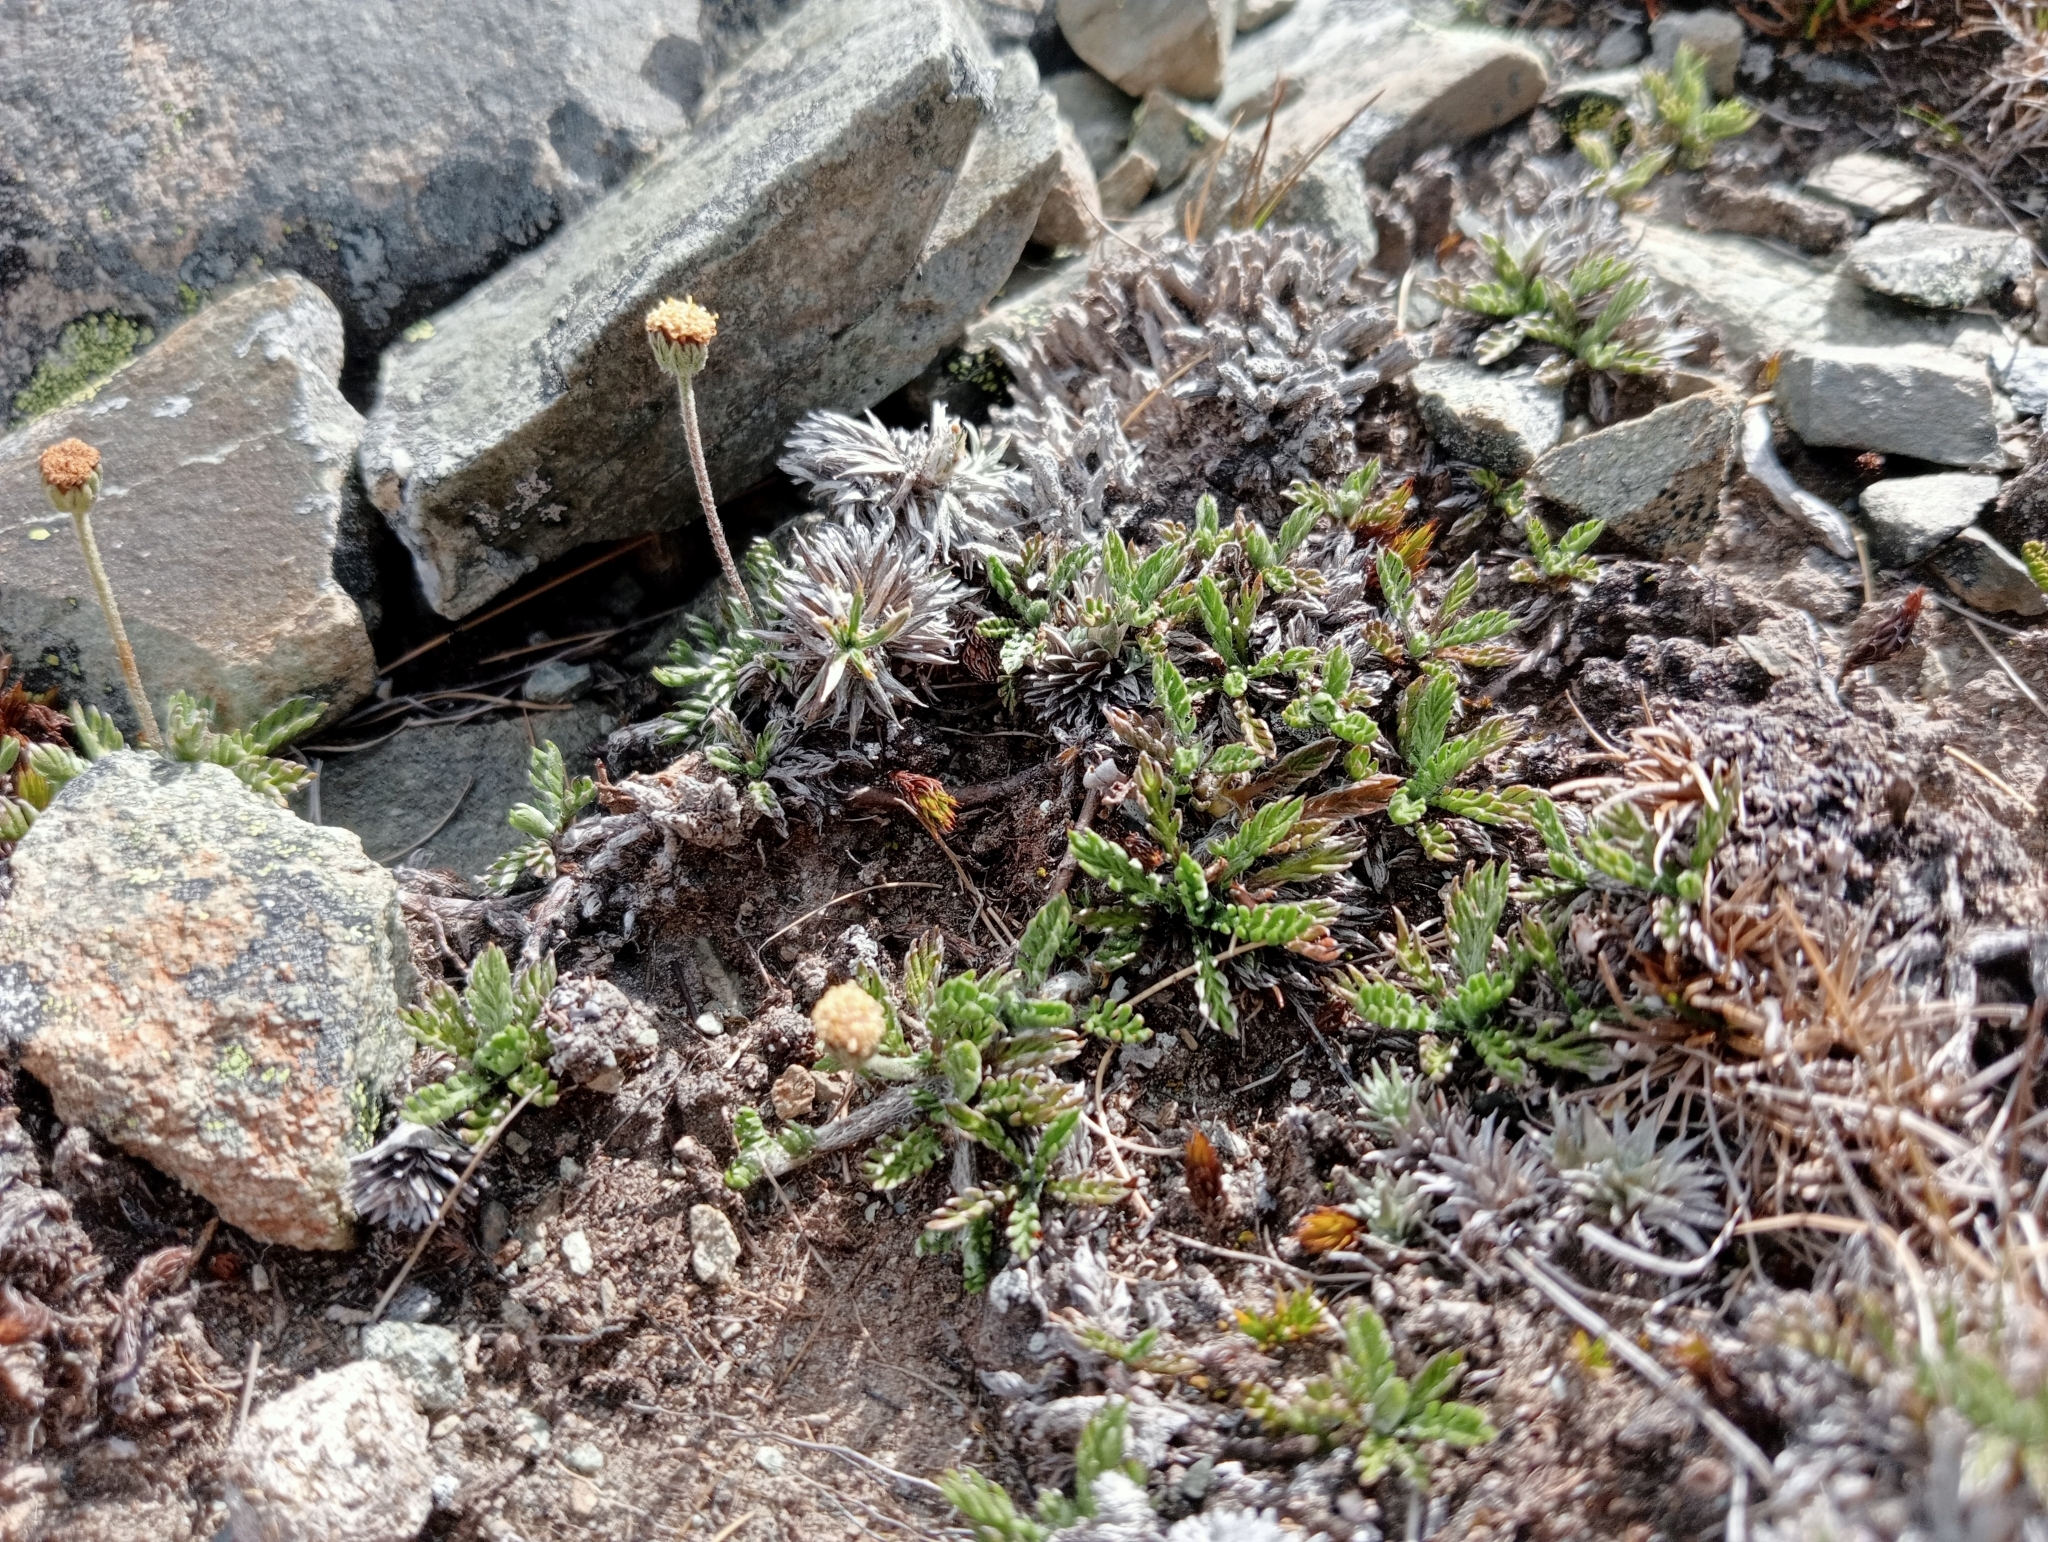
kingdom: Plantae
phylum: Tracheophyta
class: Magnoliopsida
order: Asterales
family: Asteraceae
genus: Leptinella
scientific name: Leptinella pectinata
